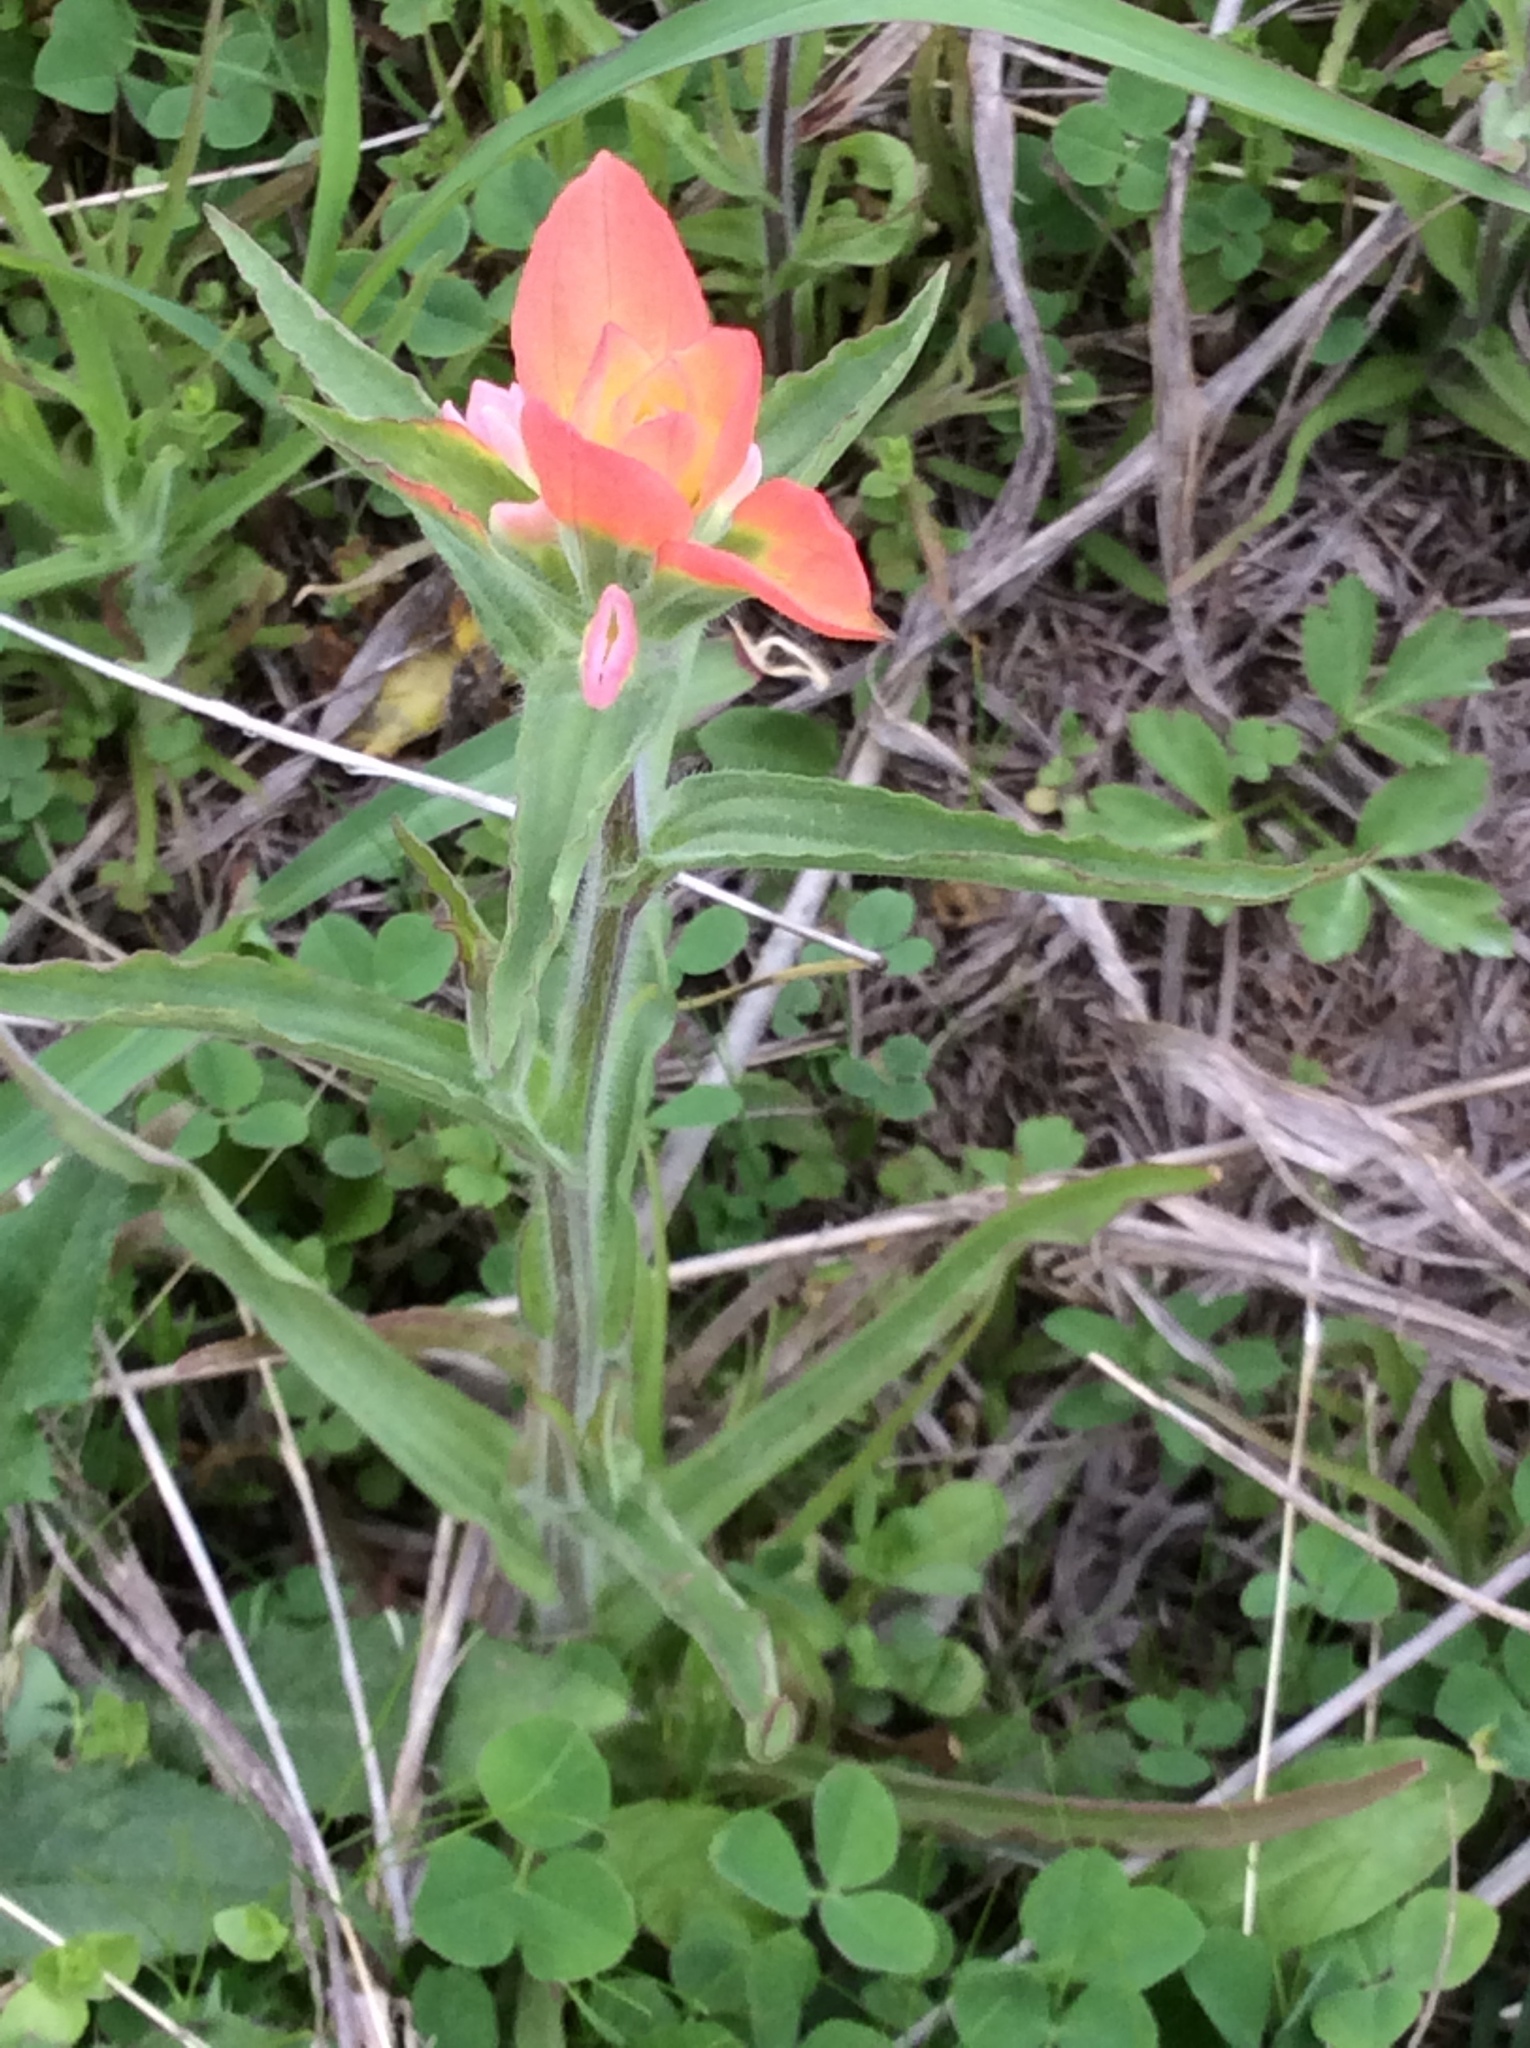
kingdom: Plantae
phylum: Tracheophyta
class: Magnoliopsida
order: Lamiales
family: Orobanchaceae
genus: Castilleja
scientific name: Castilleja indivisa
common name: Texas paintbrush
